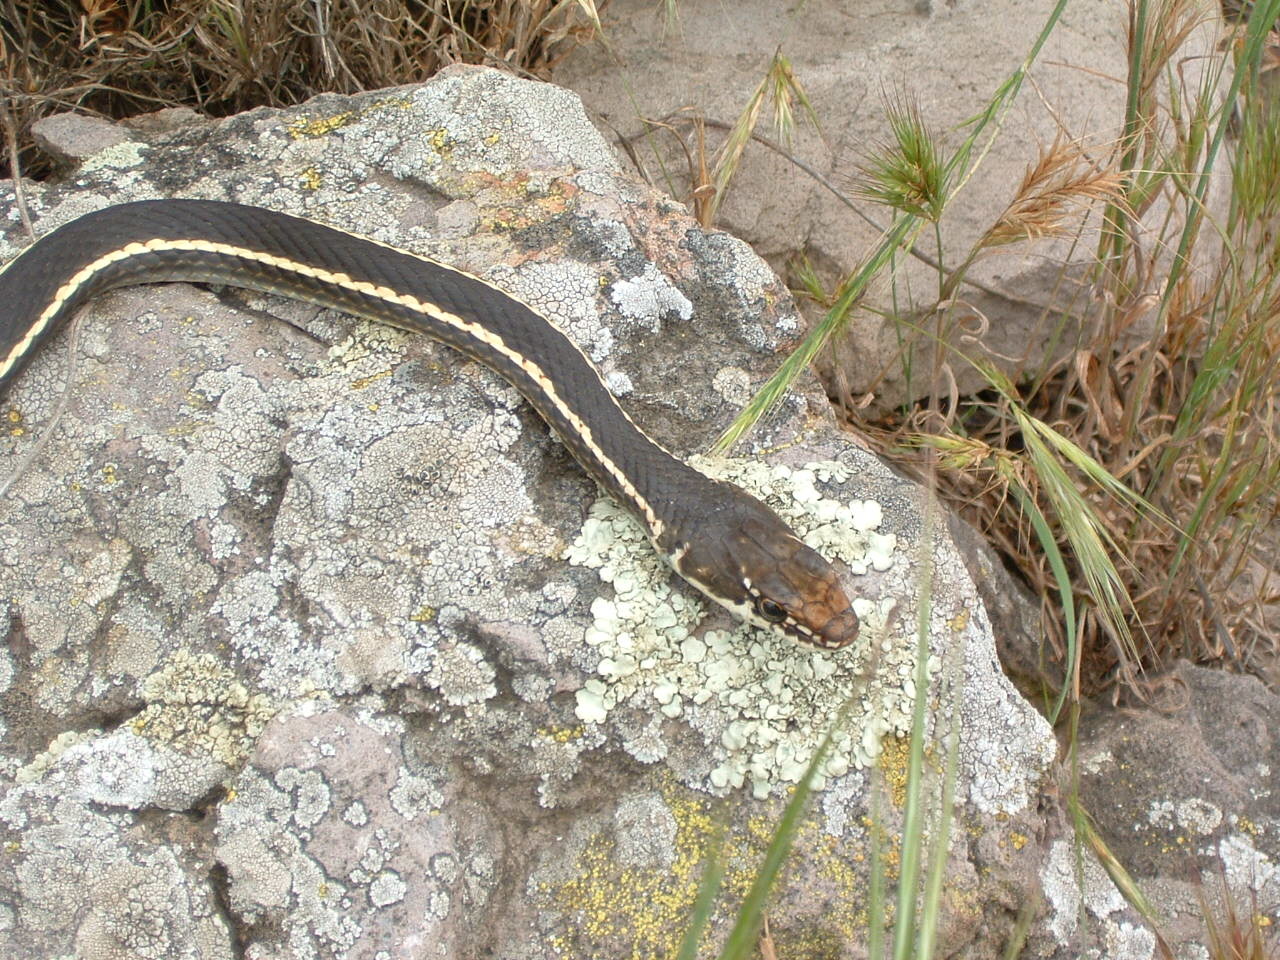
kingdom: Animalia
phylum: Chordata
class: Squamata
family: Colubridae
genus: Masticophis
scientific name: Masticophis lateralis
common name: Striped racer
